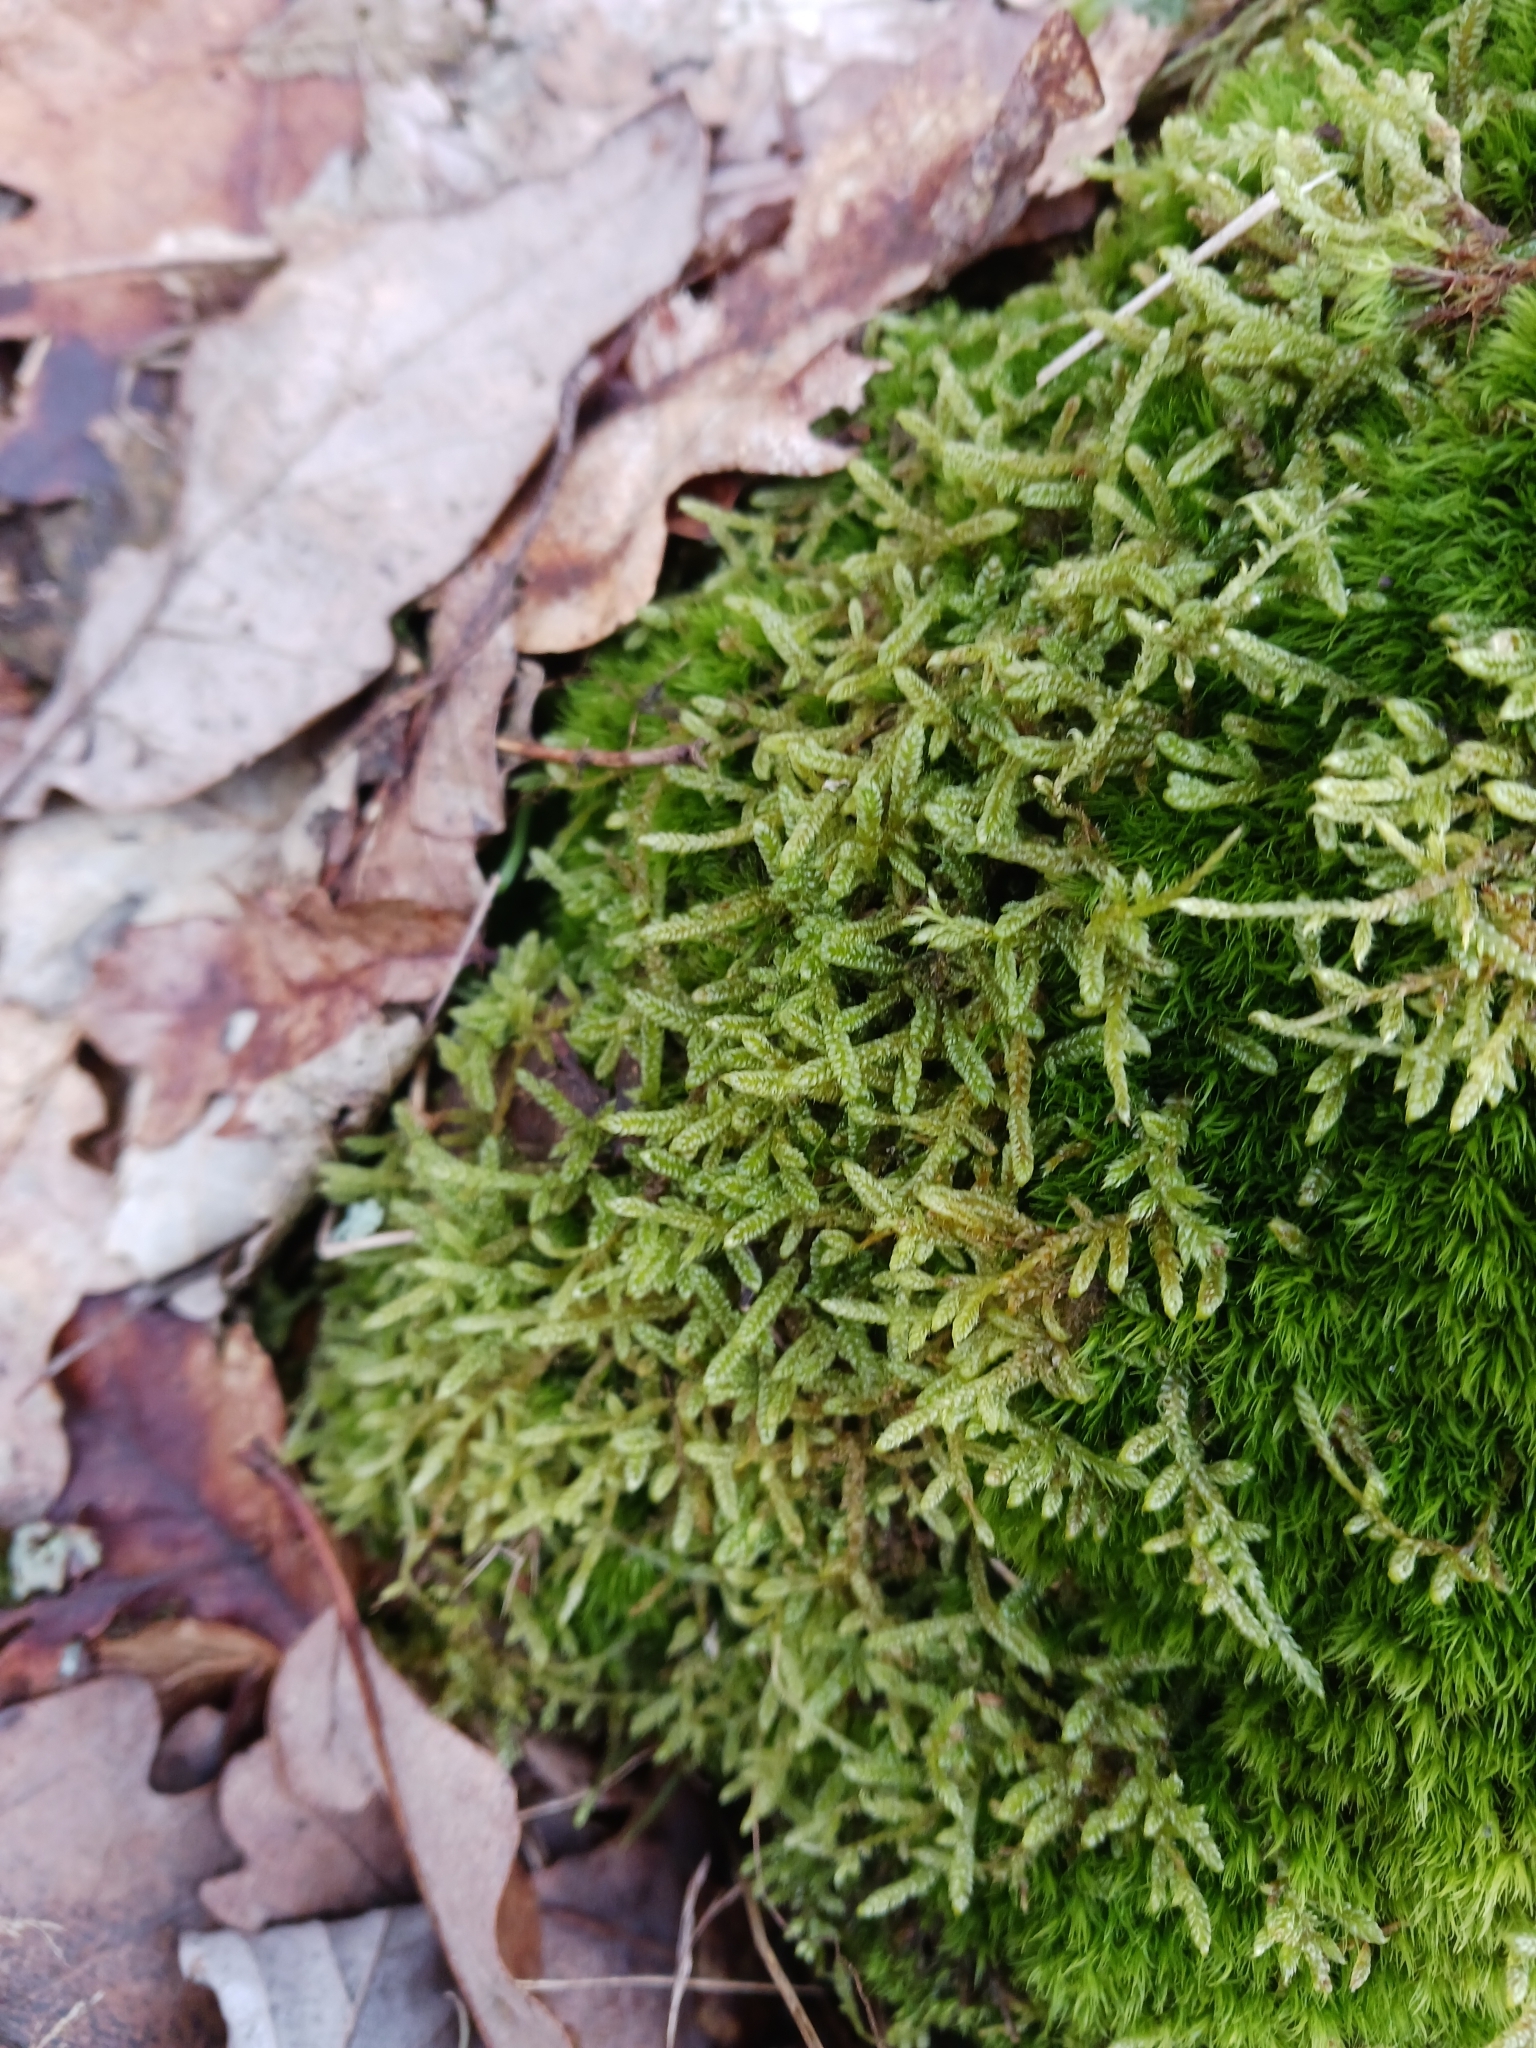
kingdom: Plantae
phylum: Bryophyta
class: Bryopsida
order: Hypnales
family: Hypnaceae
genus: Hypnum
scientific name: Hypnum cupressiforme
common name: Cypress-leaved plait-moss
